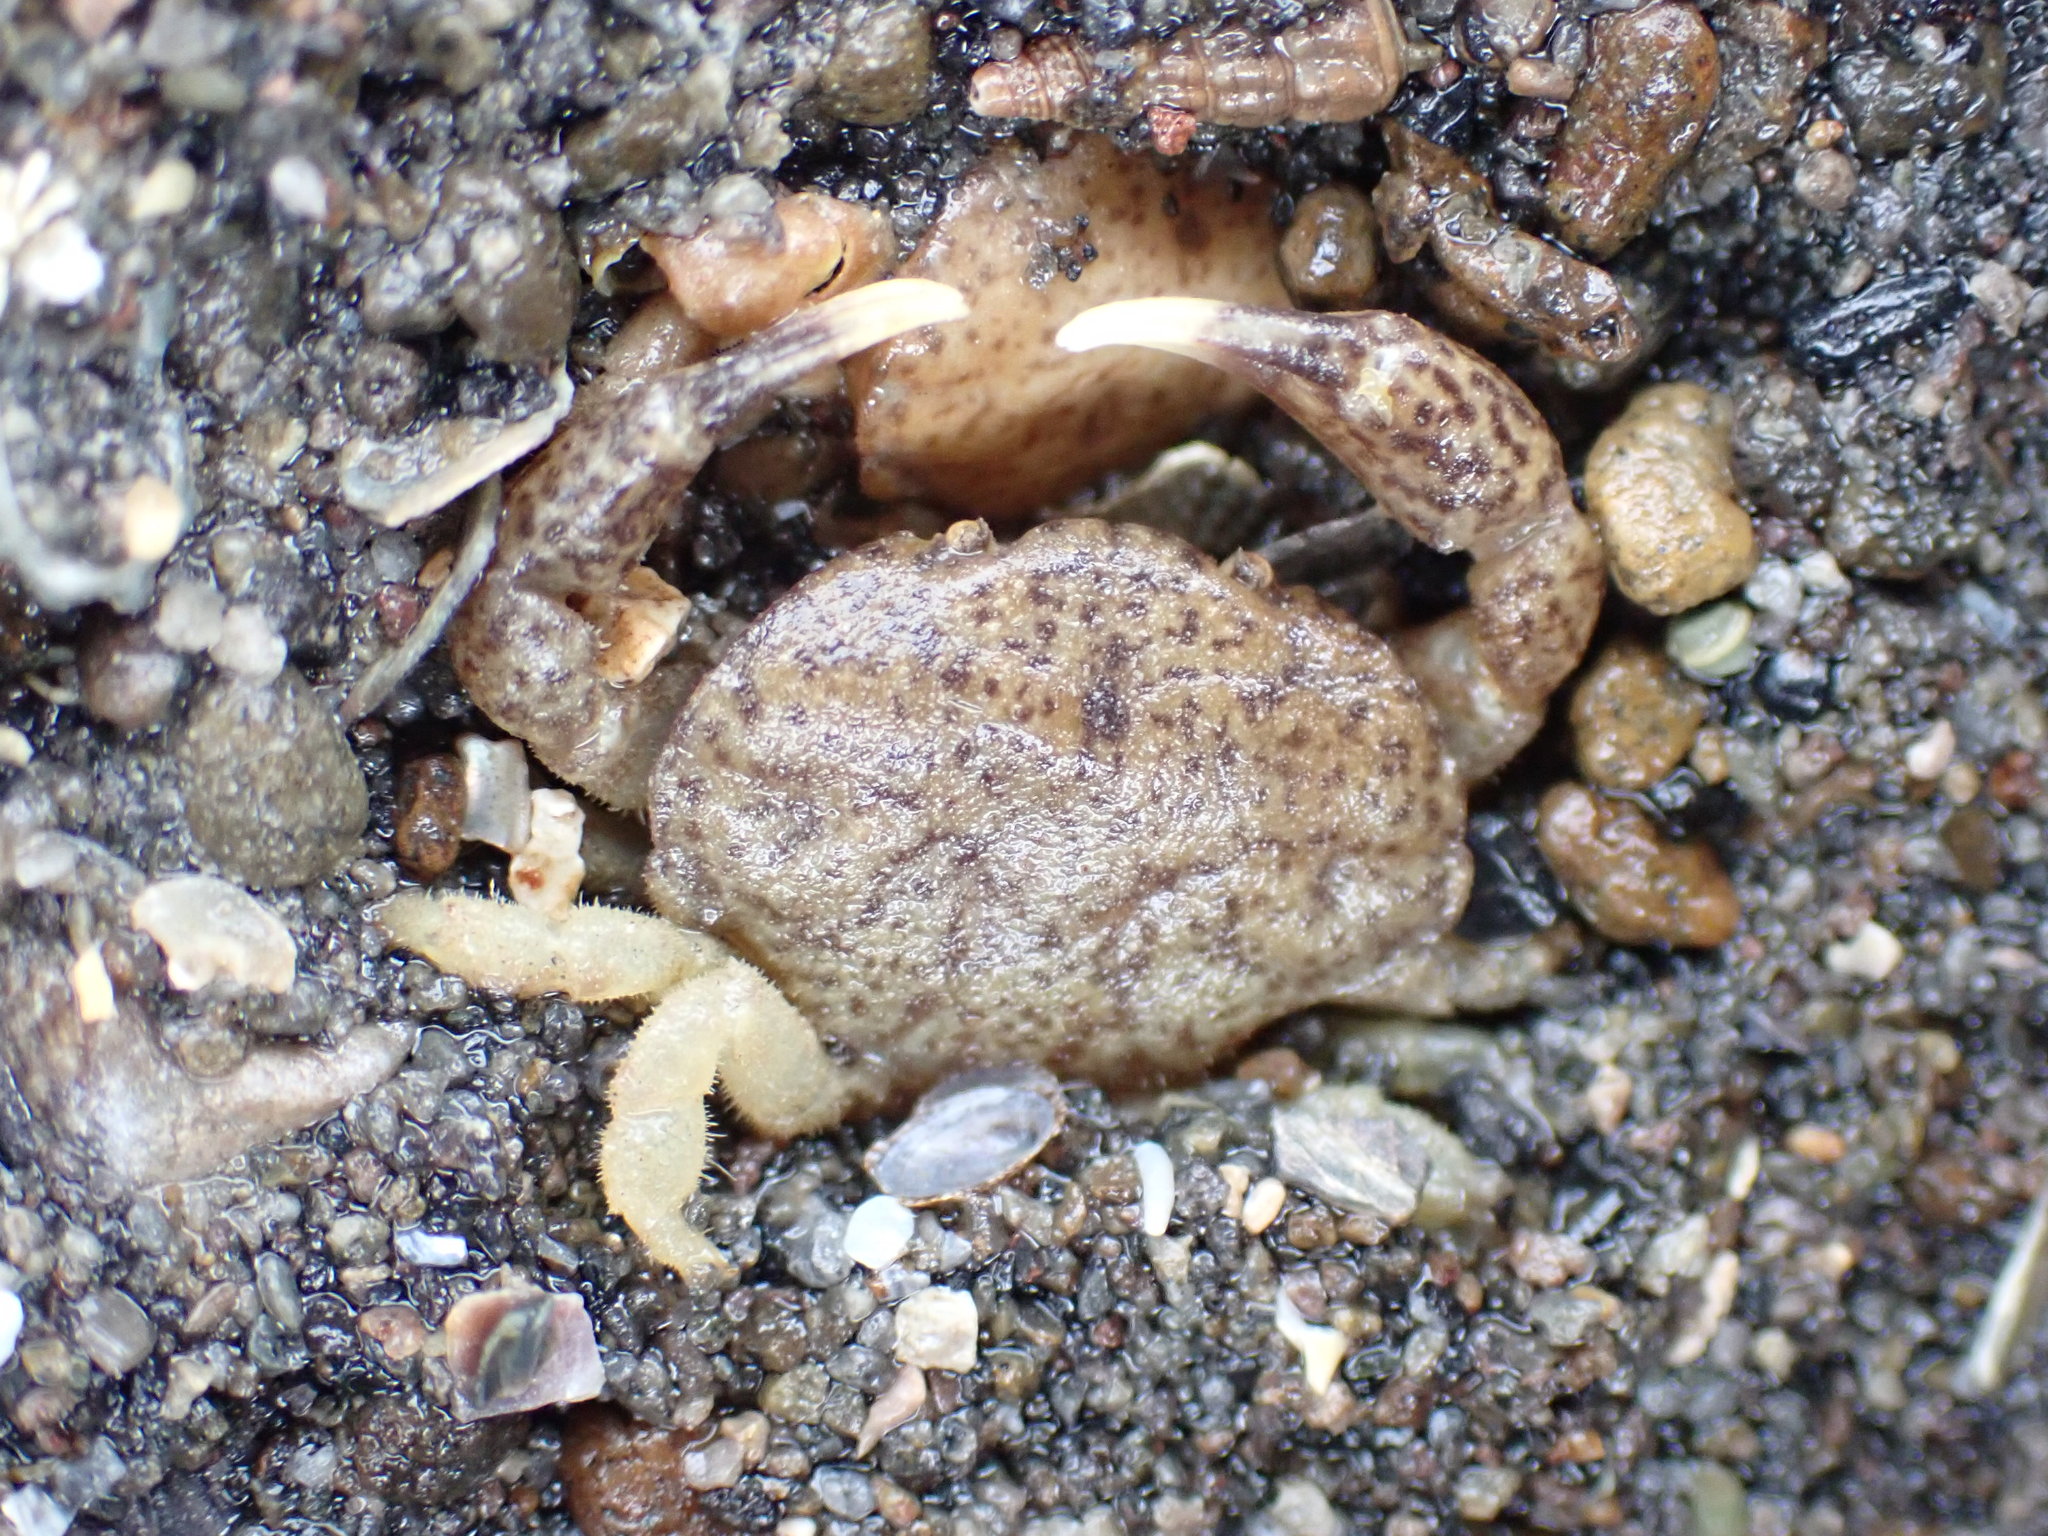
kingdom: Animalia
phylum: Arthropoda
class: Malacostraca
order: Decapoda
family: Heteroziidae
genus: Heterozius
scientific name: Heterozius rotundifrons
